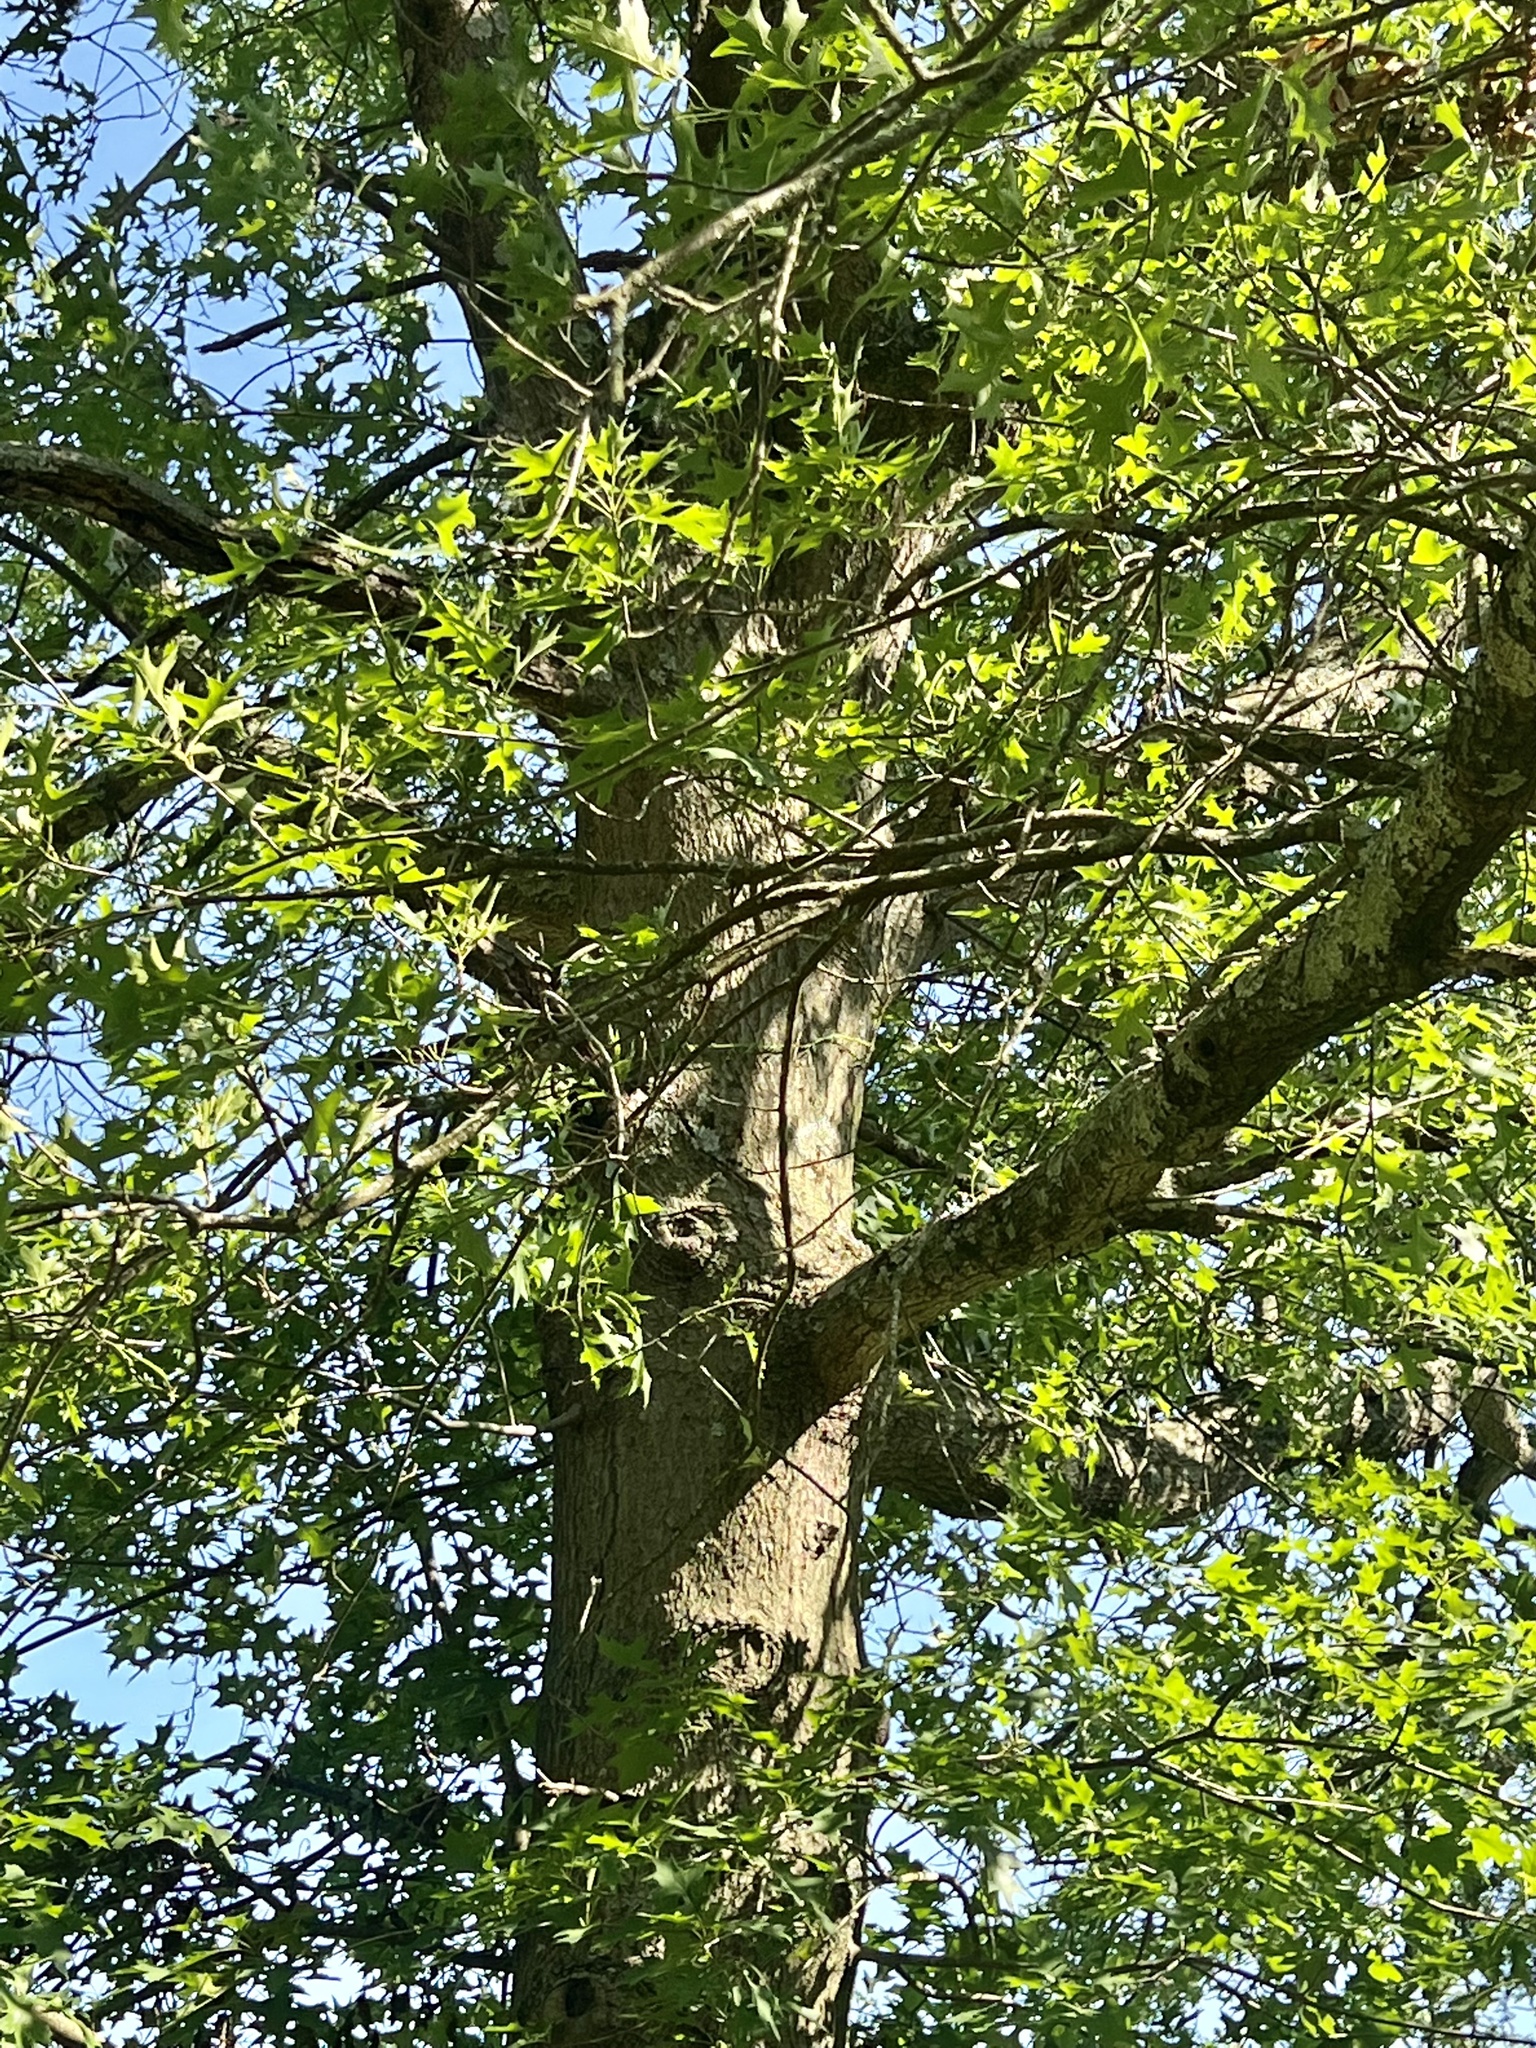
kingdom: Plantae
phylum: Tracheophyta
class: Magnoliopsida
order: Fagales
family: Fagaceae
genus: Quercus
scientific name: Quercus palustris
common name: Pin oak
